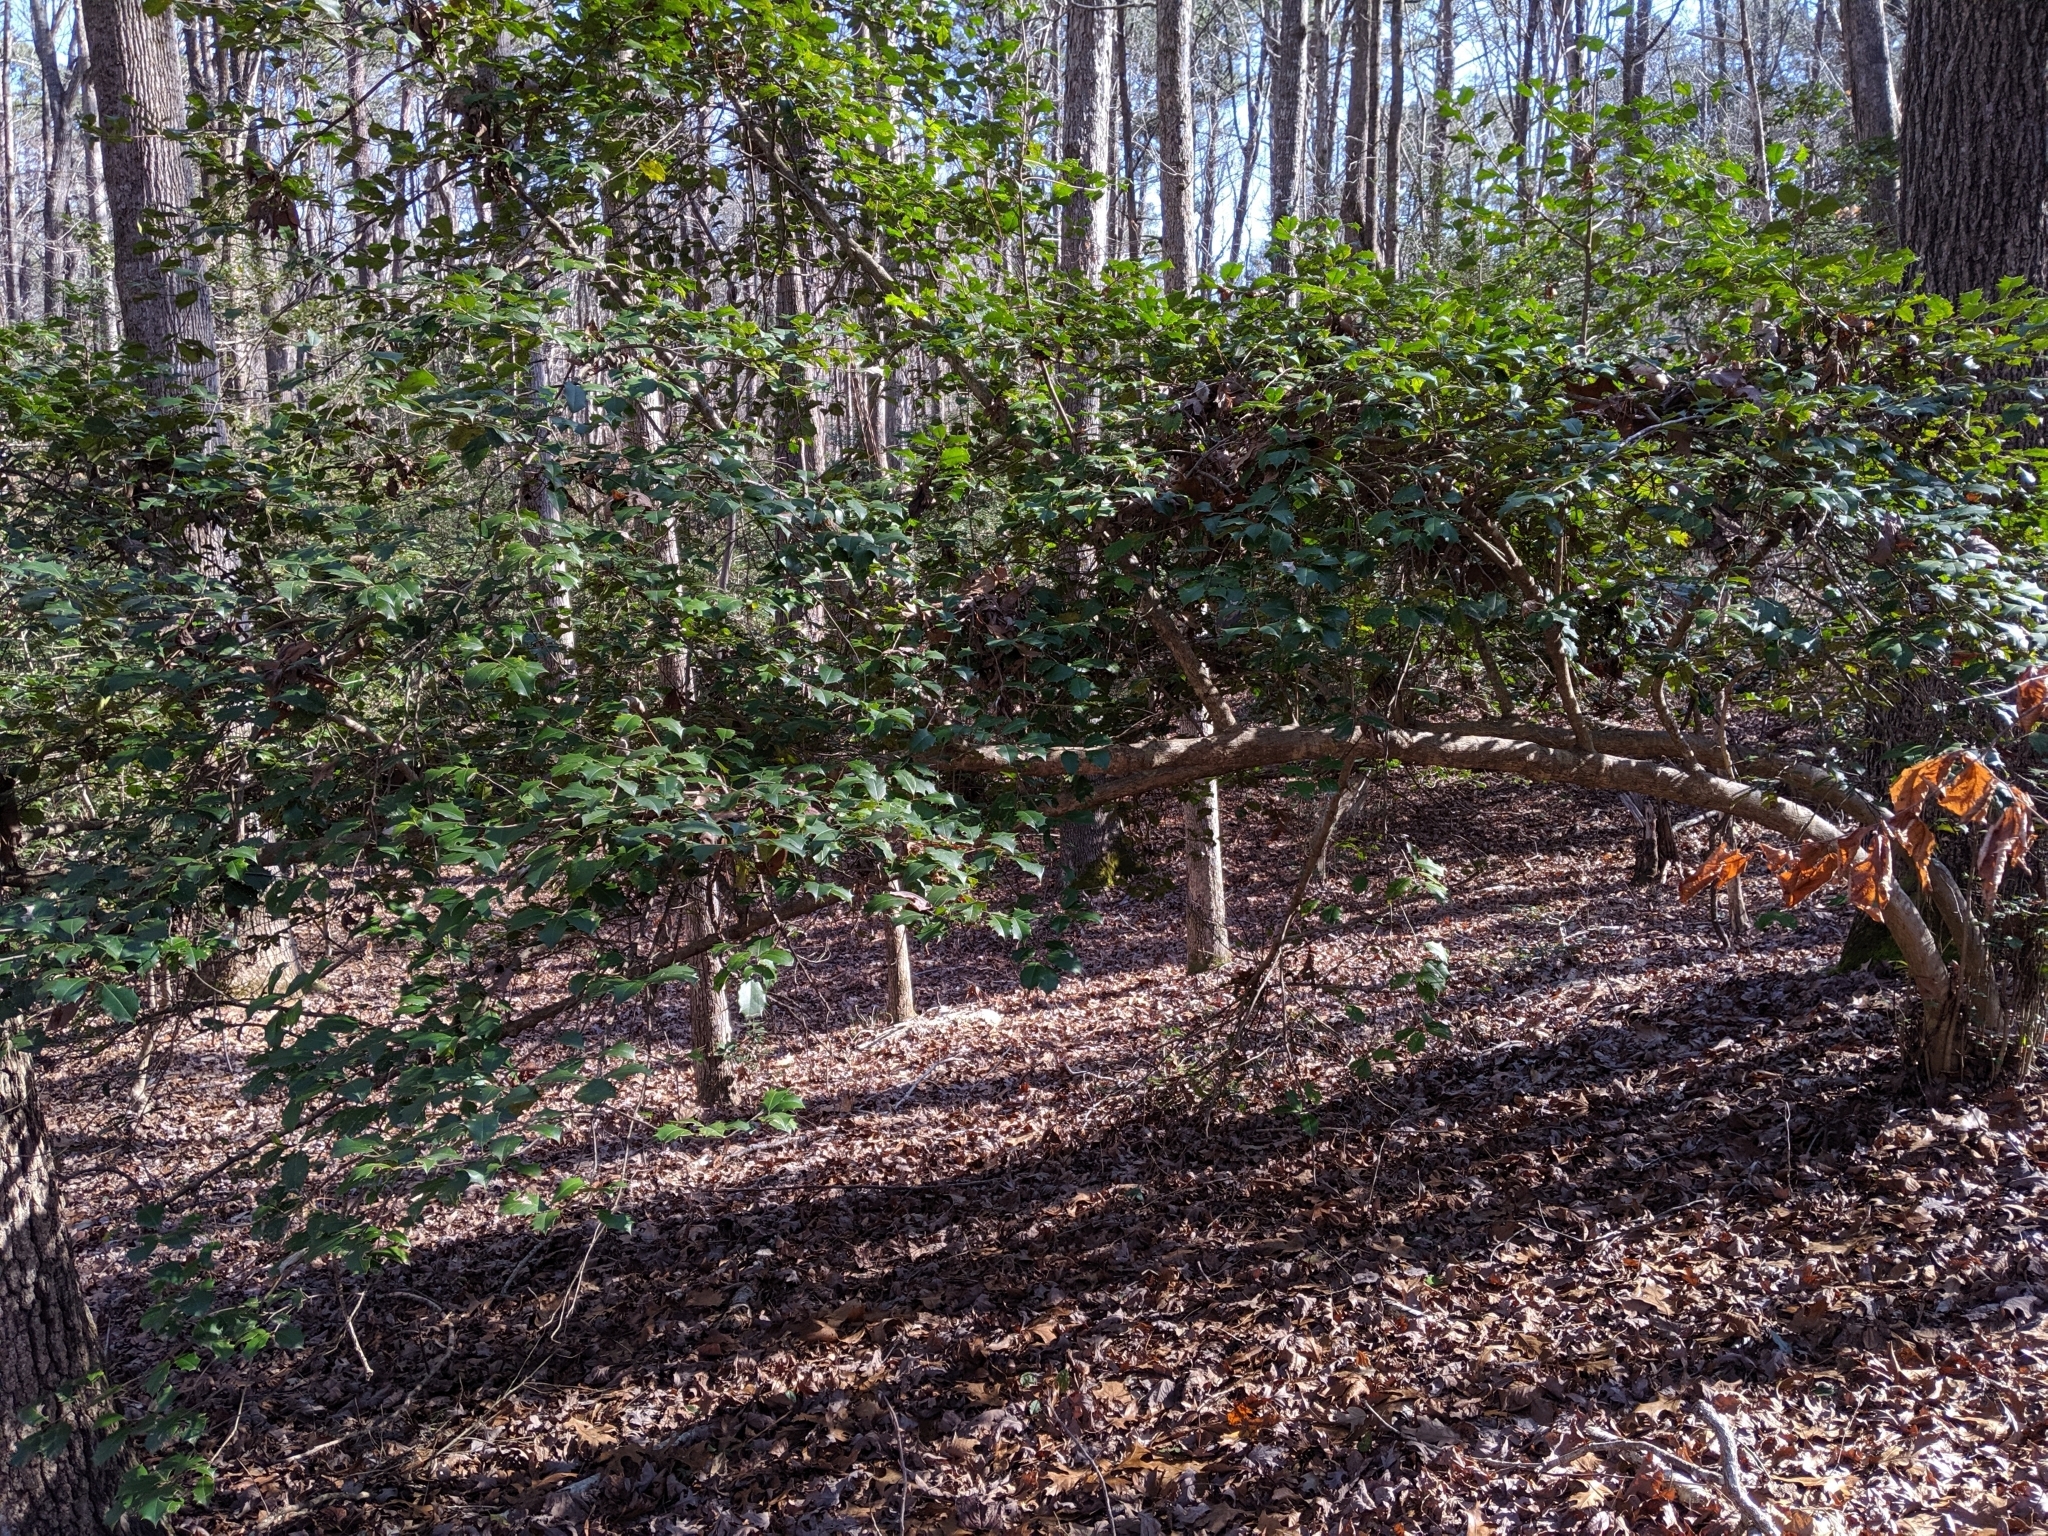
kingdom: Plantae
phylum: Tracheophyta
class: Magnoliopsida
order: Aquifoliales
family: Aquifoliaceae
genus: Ilex
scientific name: Ilex opaca
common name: American holly
